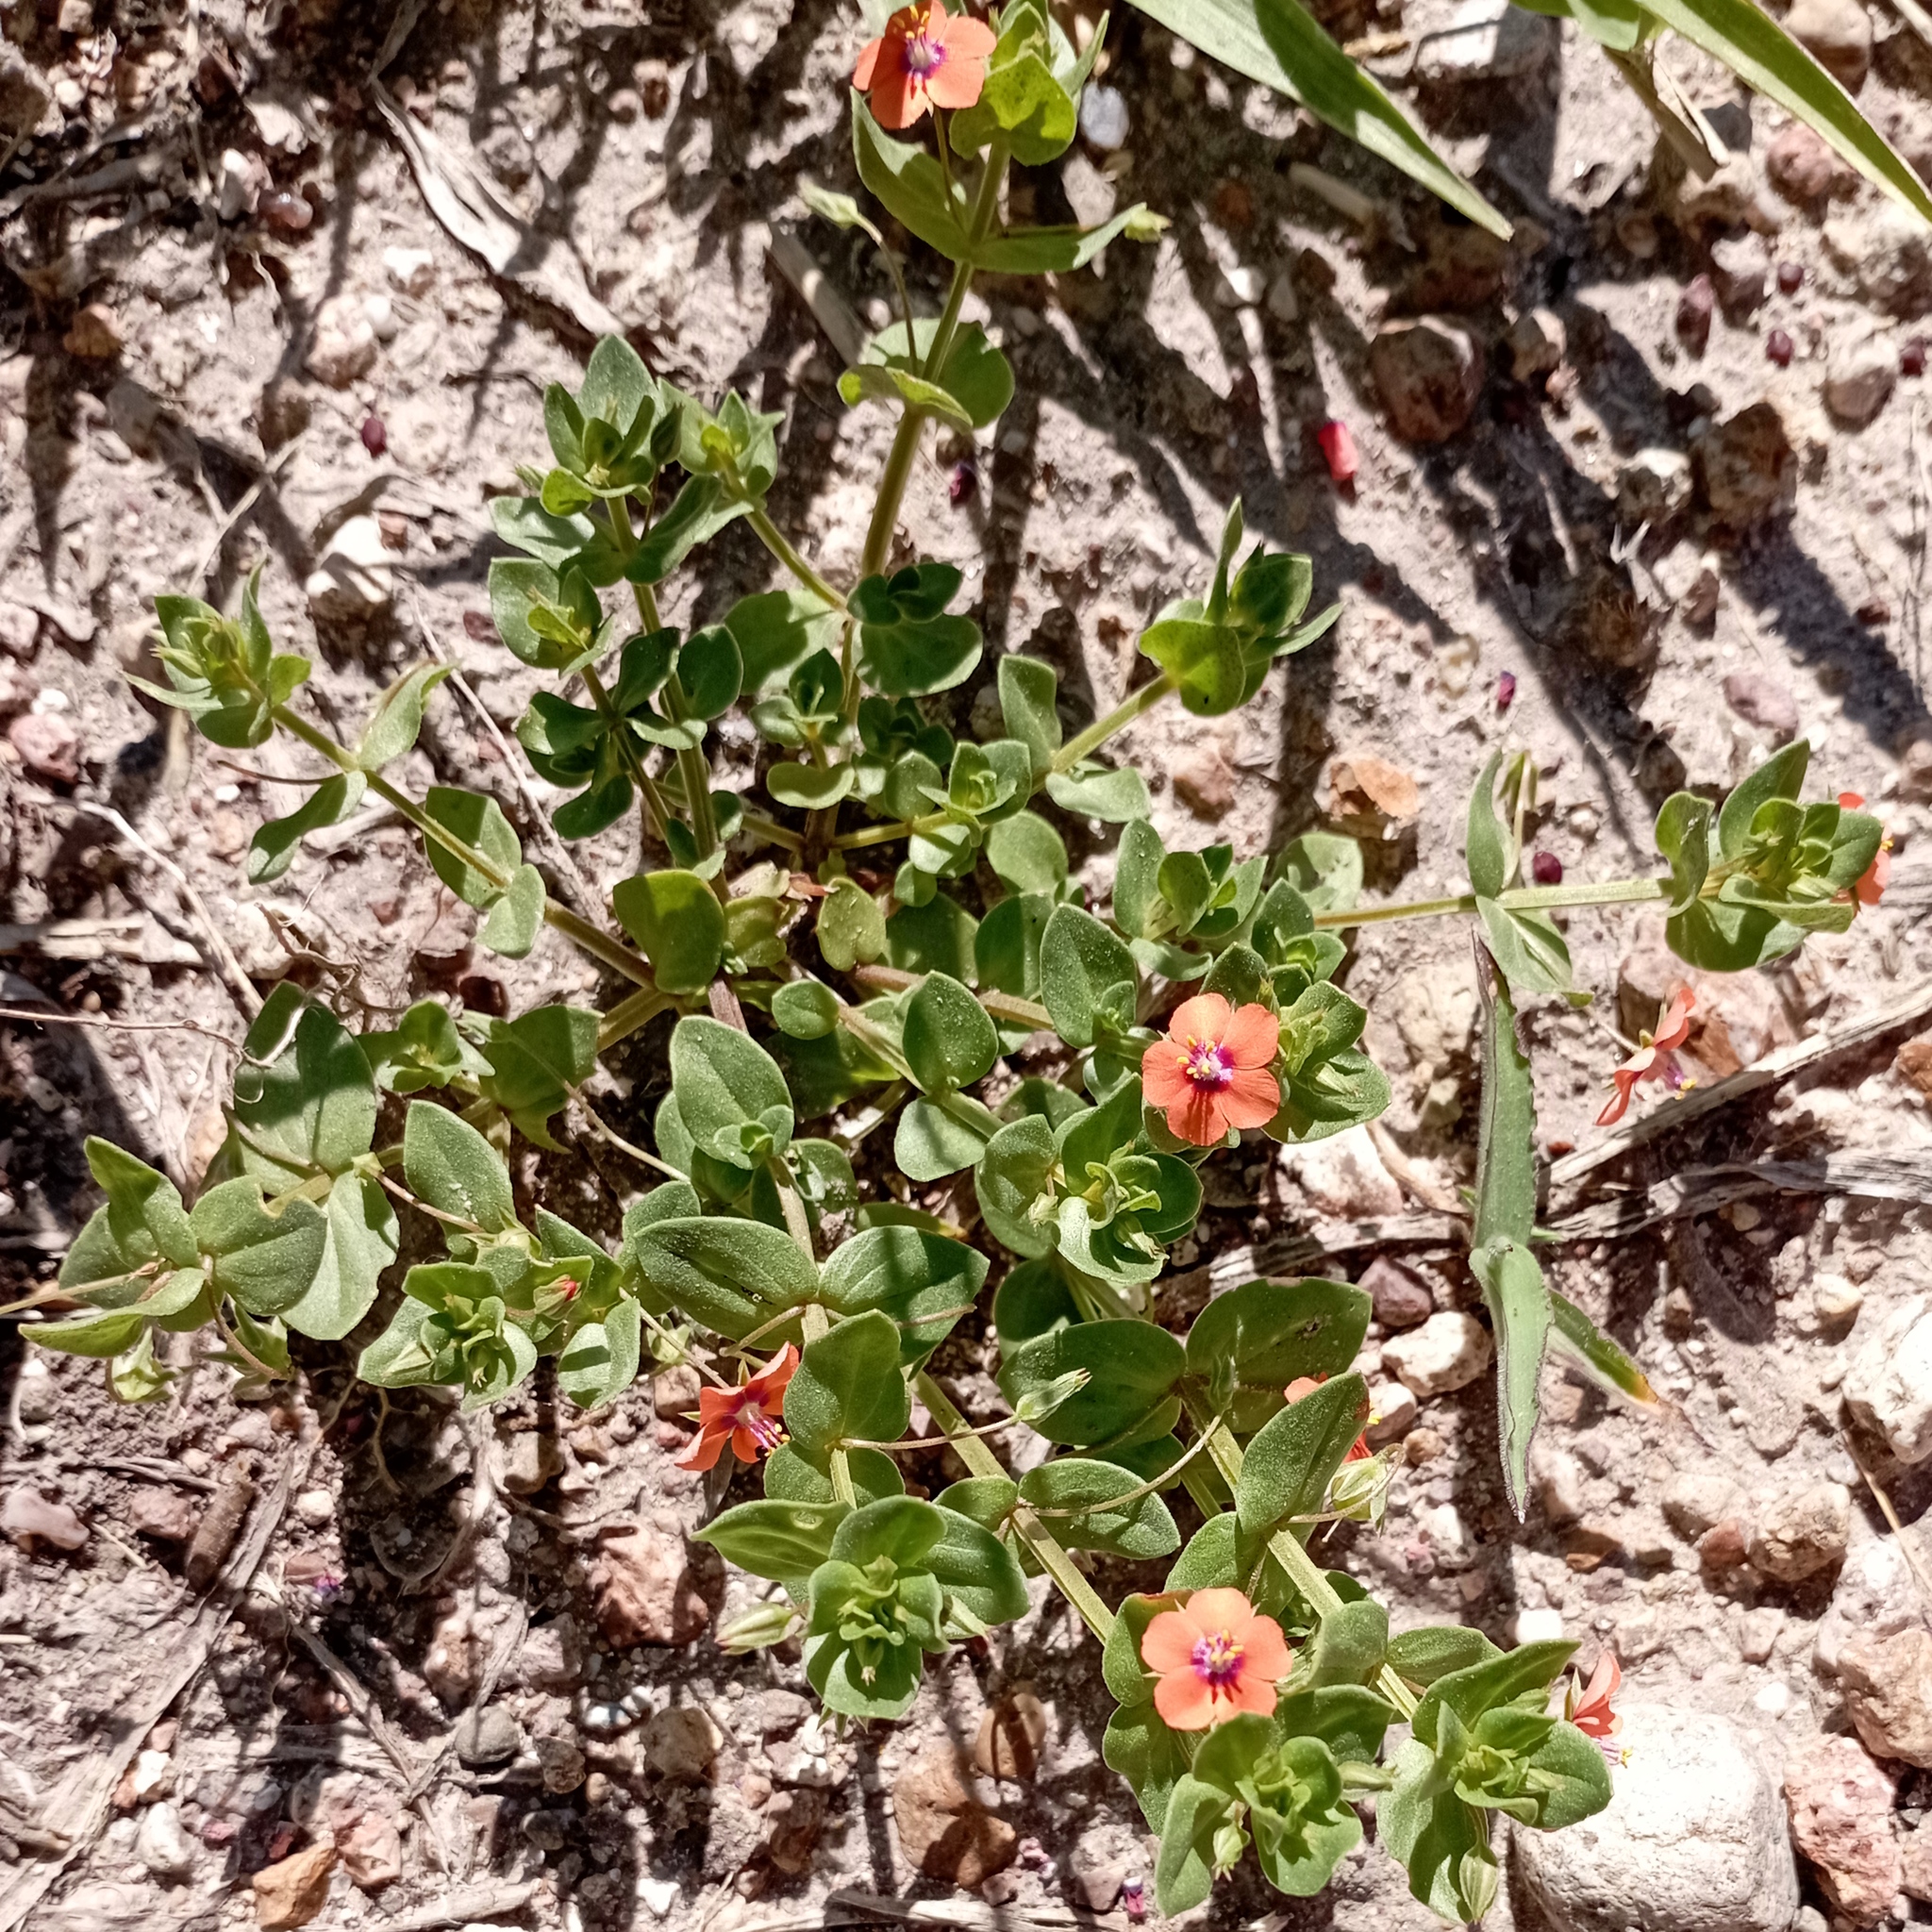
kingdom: Plantae
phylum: Tracheophyta
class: Magnoliopsida
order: Ericales
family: Primulaceae
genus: Lysimachia
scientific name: Lysimachia arvensis
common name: Scarlet pimpernel
